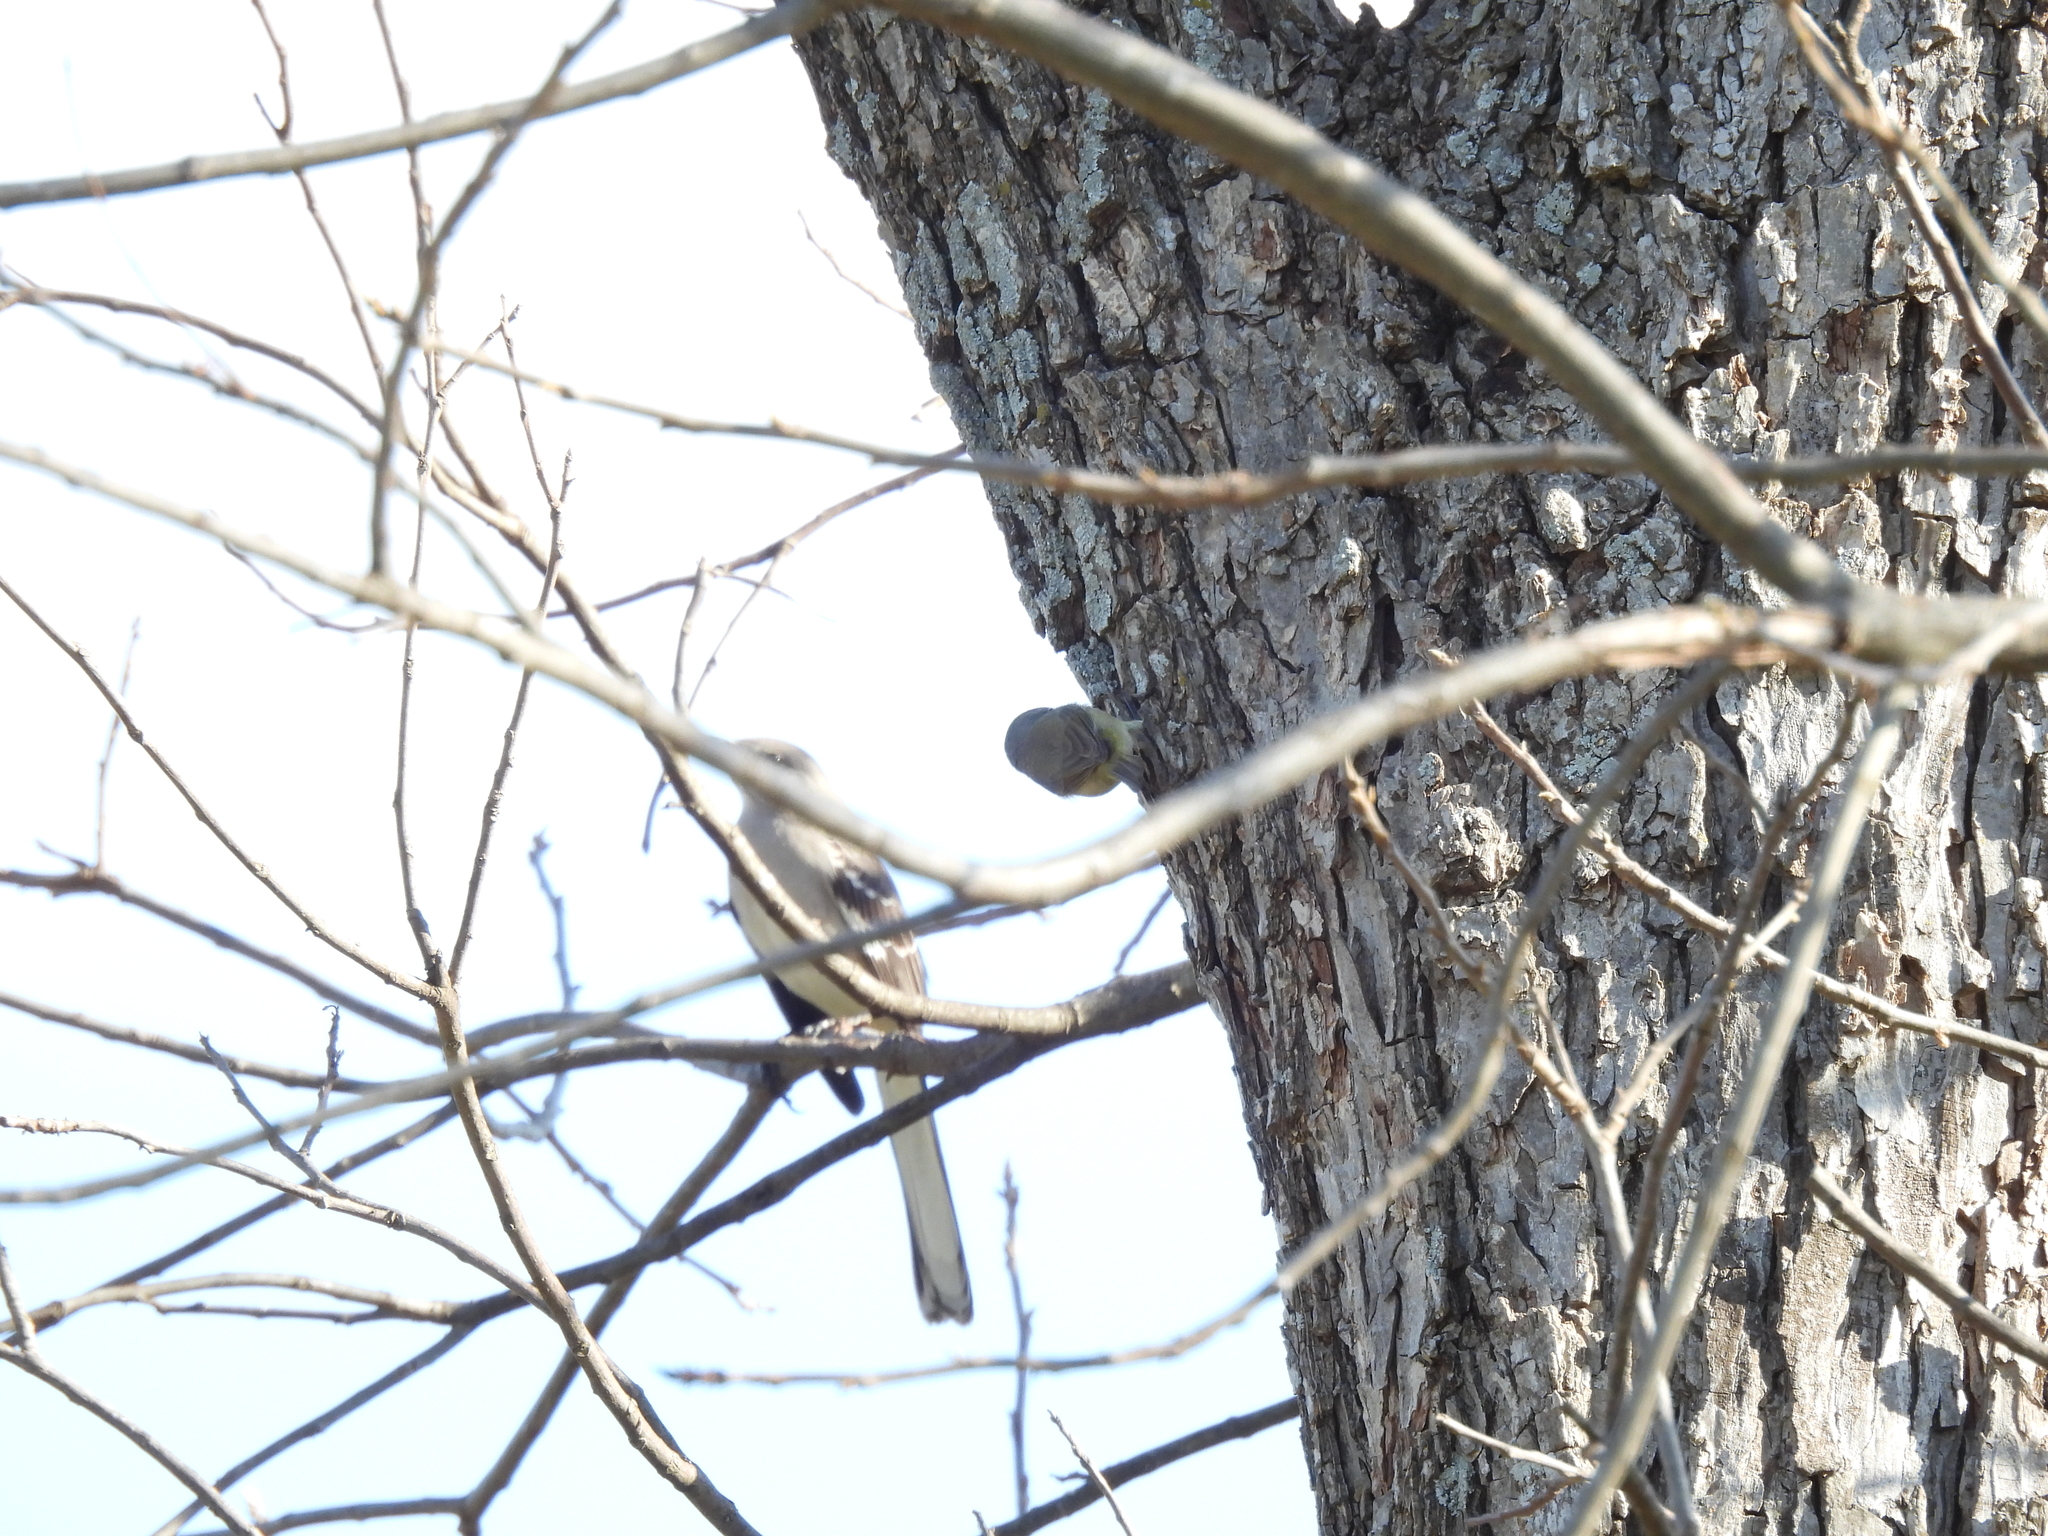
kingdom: Animalia
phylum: Chordata
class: Aves
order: Passeriformes
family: Parulidae
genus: Leiothlypis
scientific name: Leiothlypis celata
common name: Orange-crowned warbler
